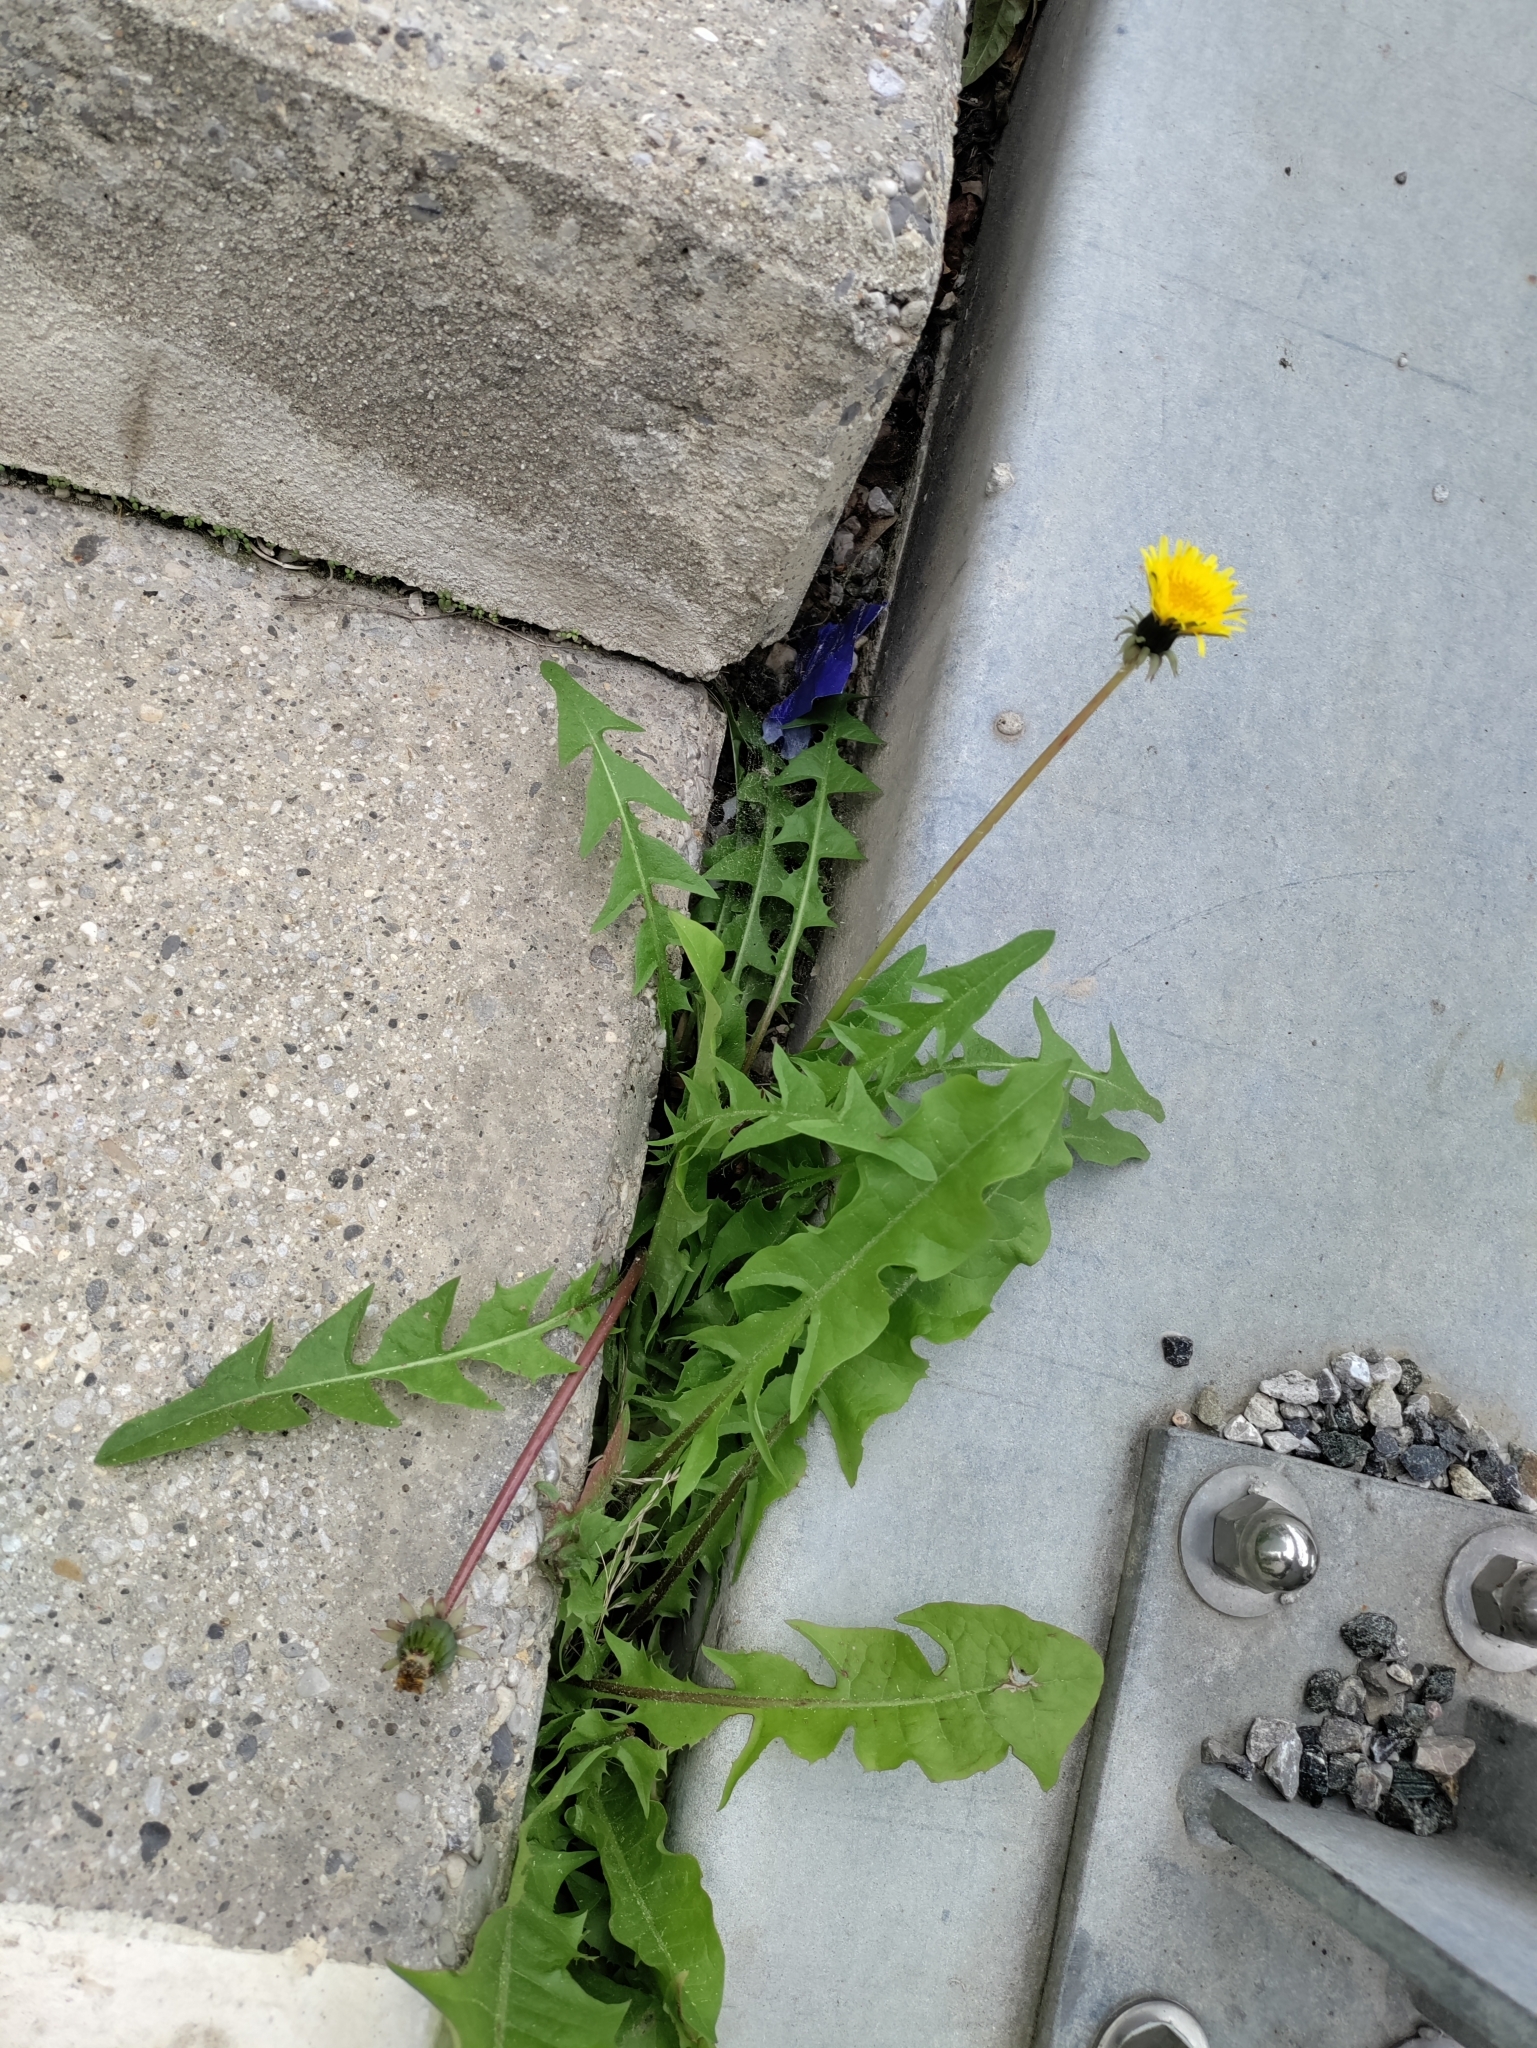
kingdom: Plantae
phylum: Tracheophyta
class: Magnoliopsida
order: Asterales
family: Asteraceae
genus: Taraxacum
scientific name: Taraxacum officinale
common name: Common dandelion
